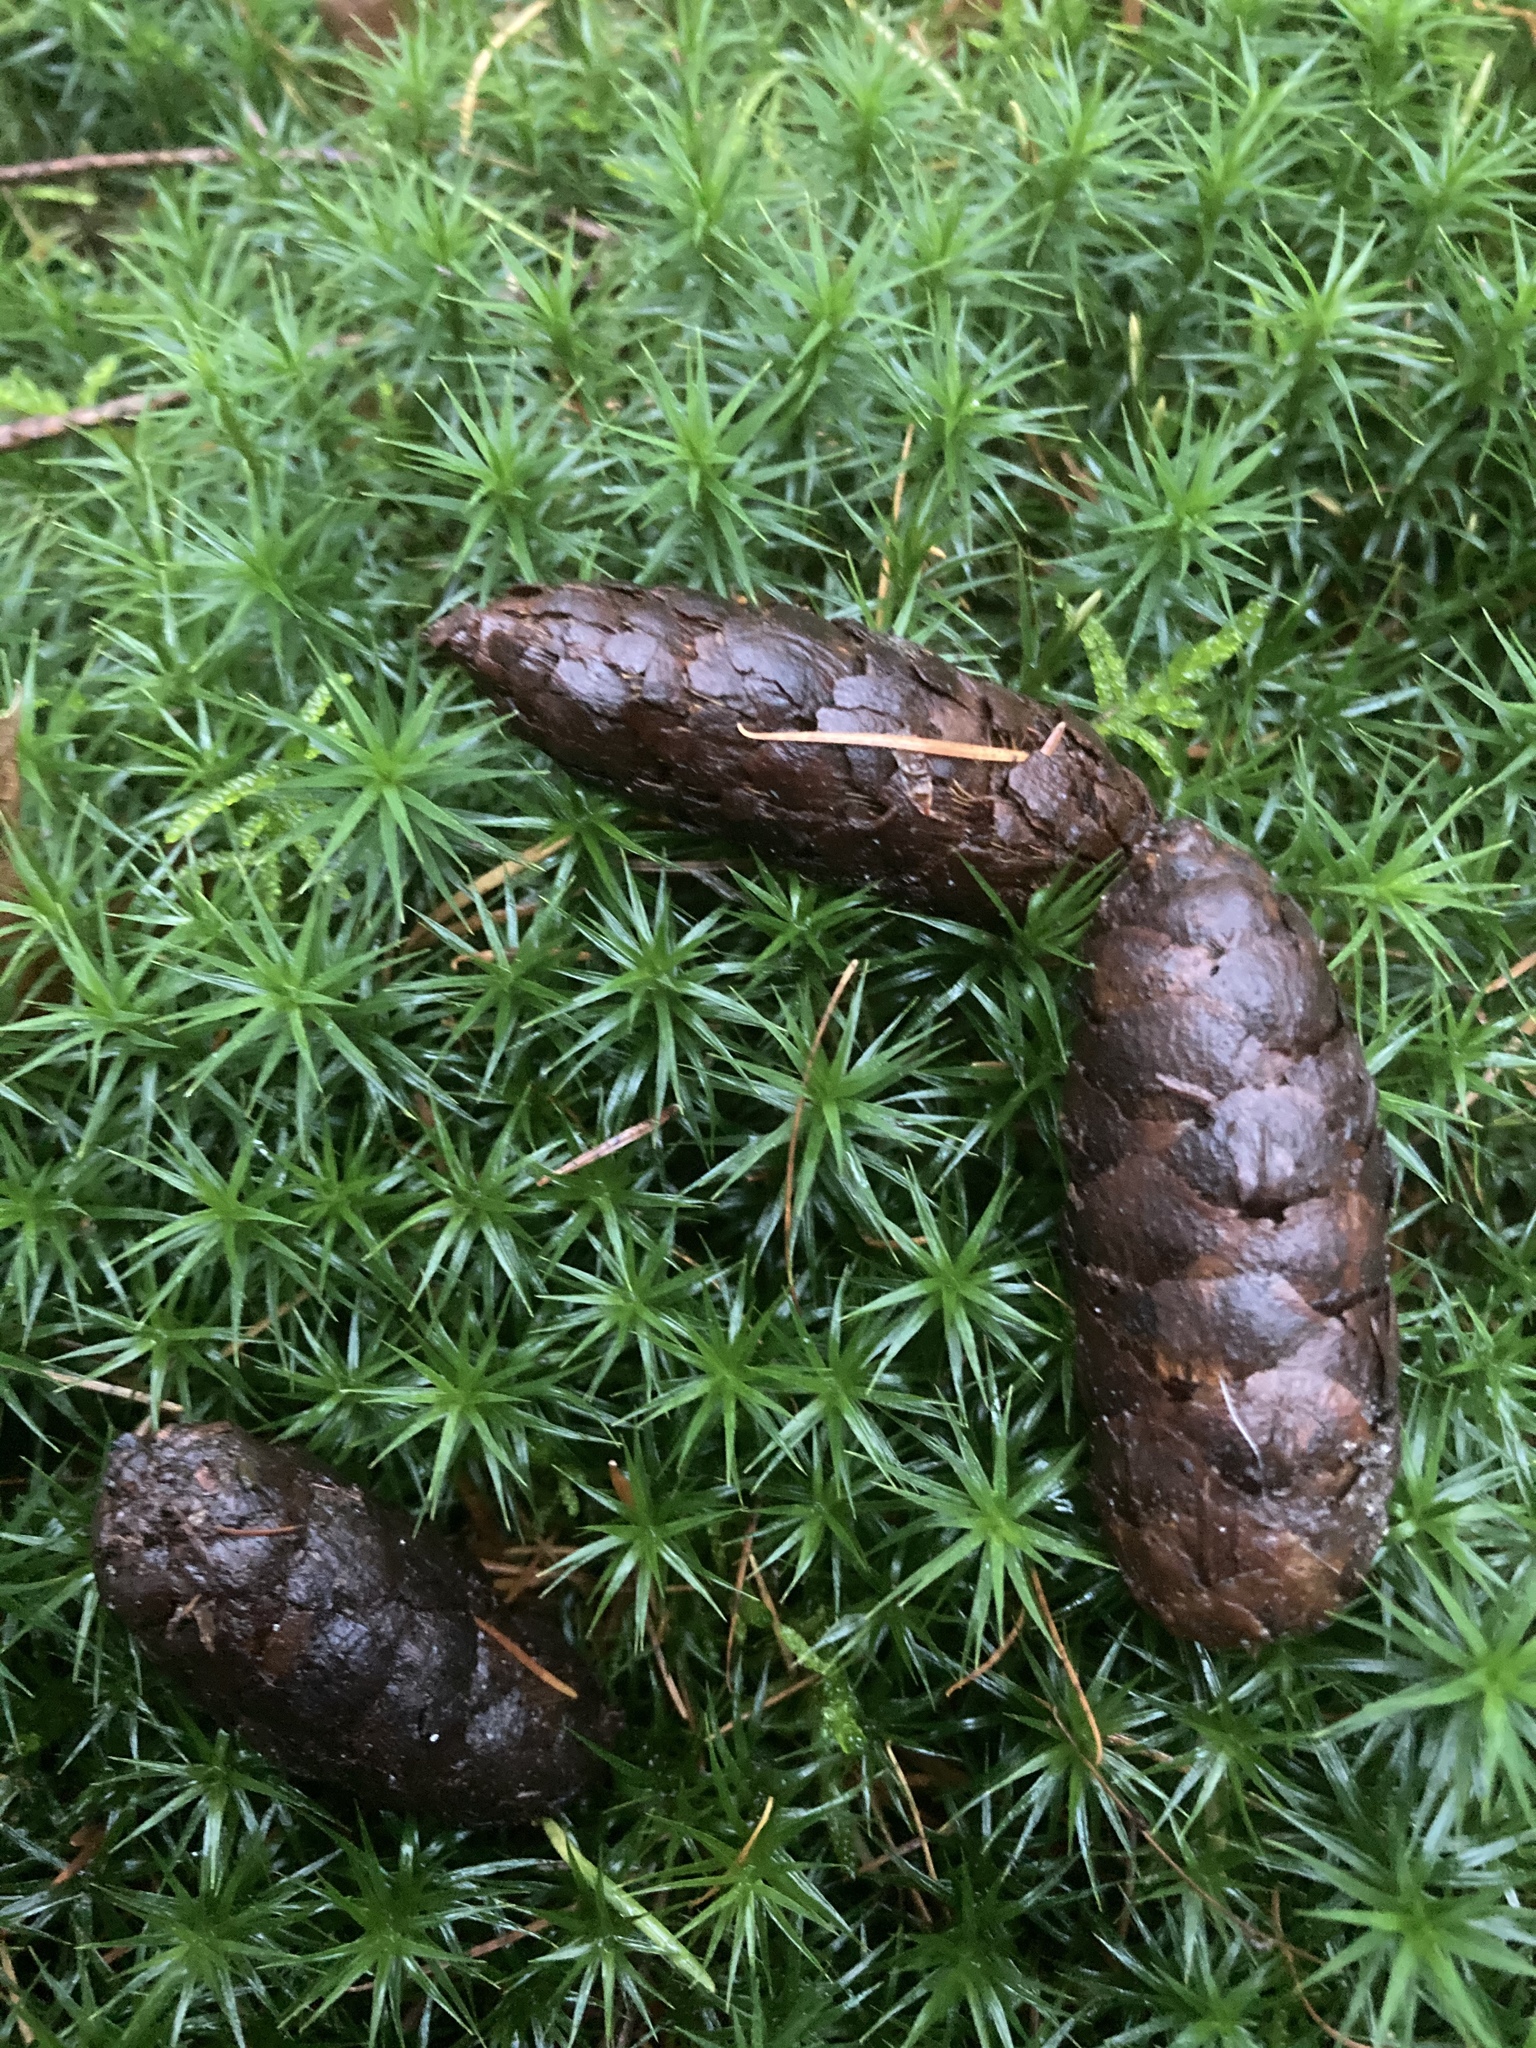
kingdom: Plantae
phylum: Bryophyta
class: Polytrichopsida
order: Polytrichales
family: Polytrichaceae
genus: Polytrichum
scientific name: Polytrichum formosum
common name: Bank haircap moss
